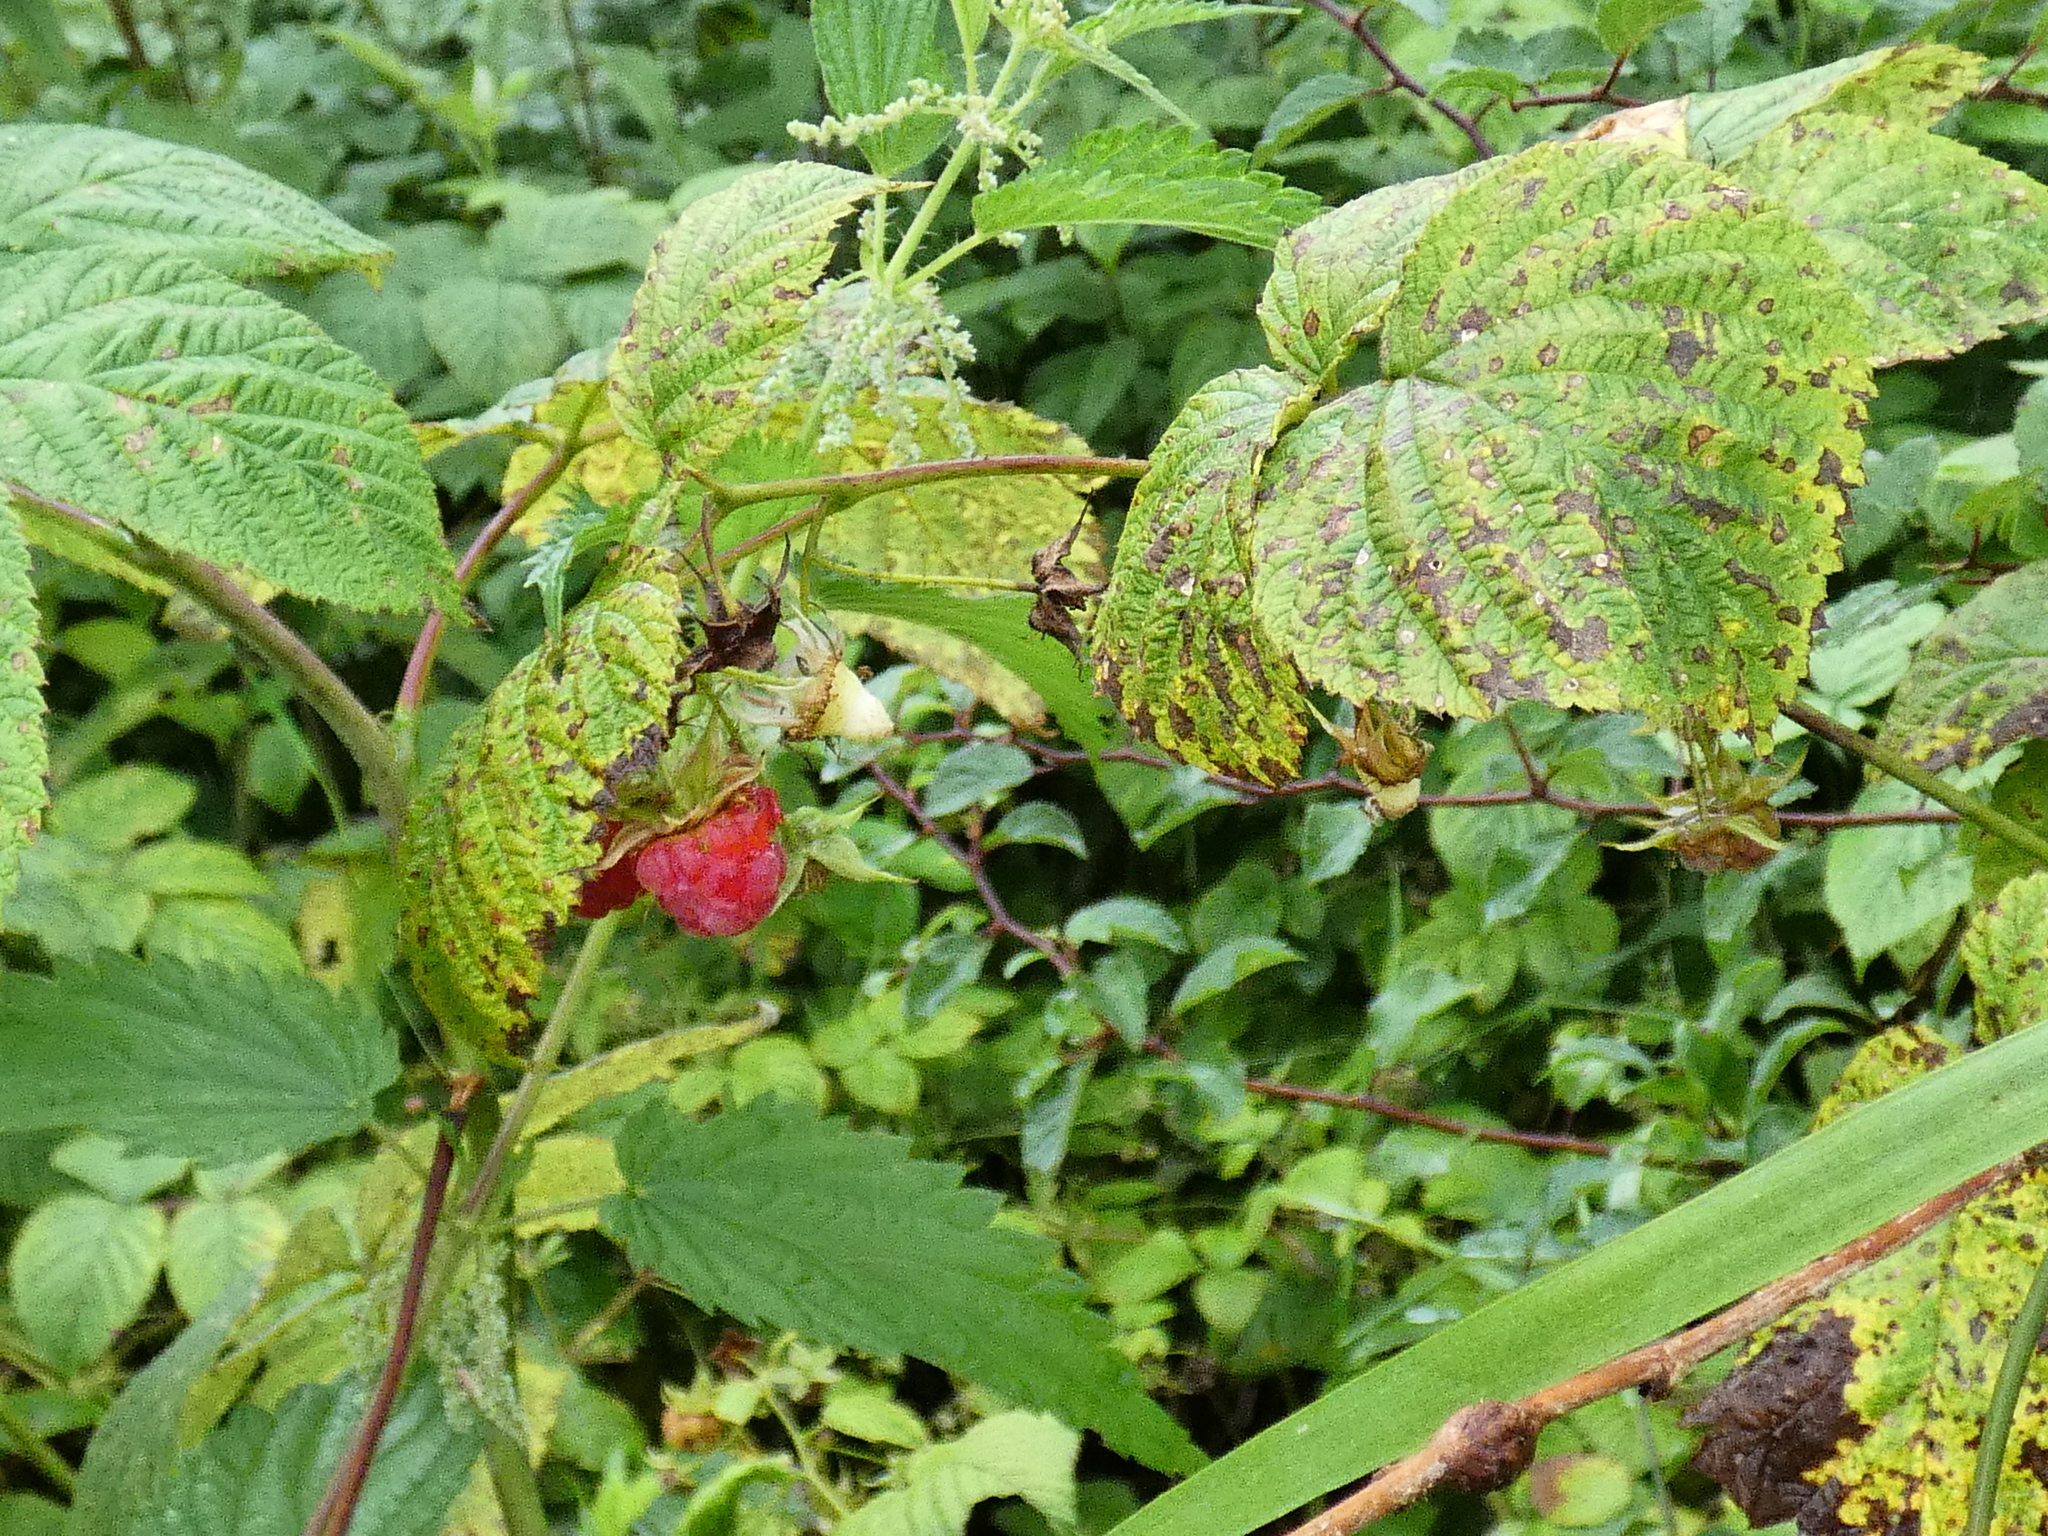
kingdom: Plantae
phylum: Tracheophyta
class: Magnoliopsida
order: Rosales
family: Rosaceae
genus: Rubus
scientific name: Rubus idaeus
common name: Raspberry
